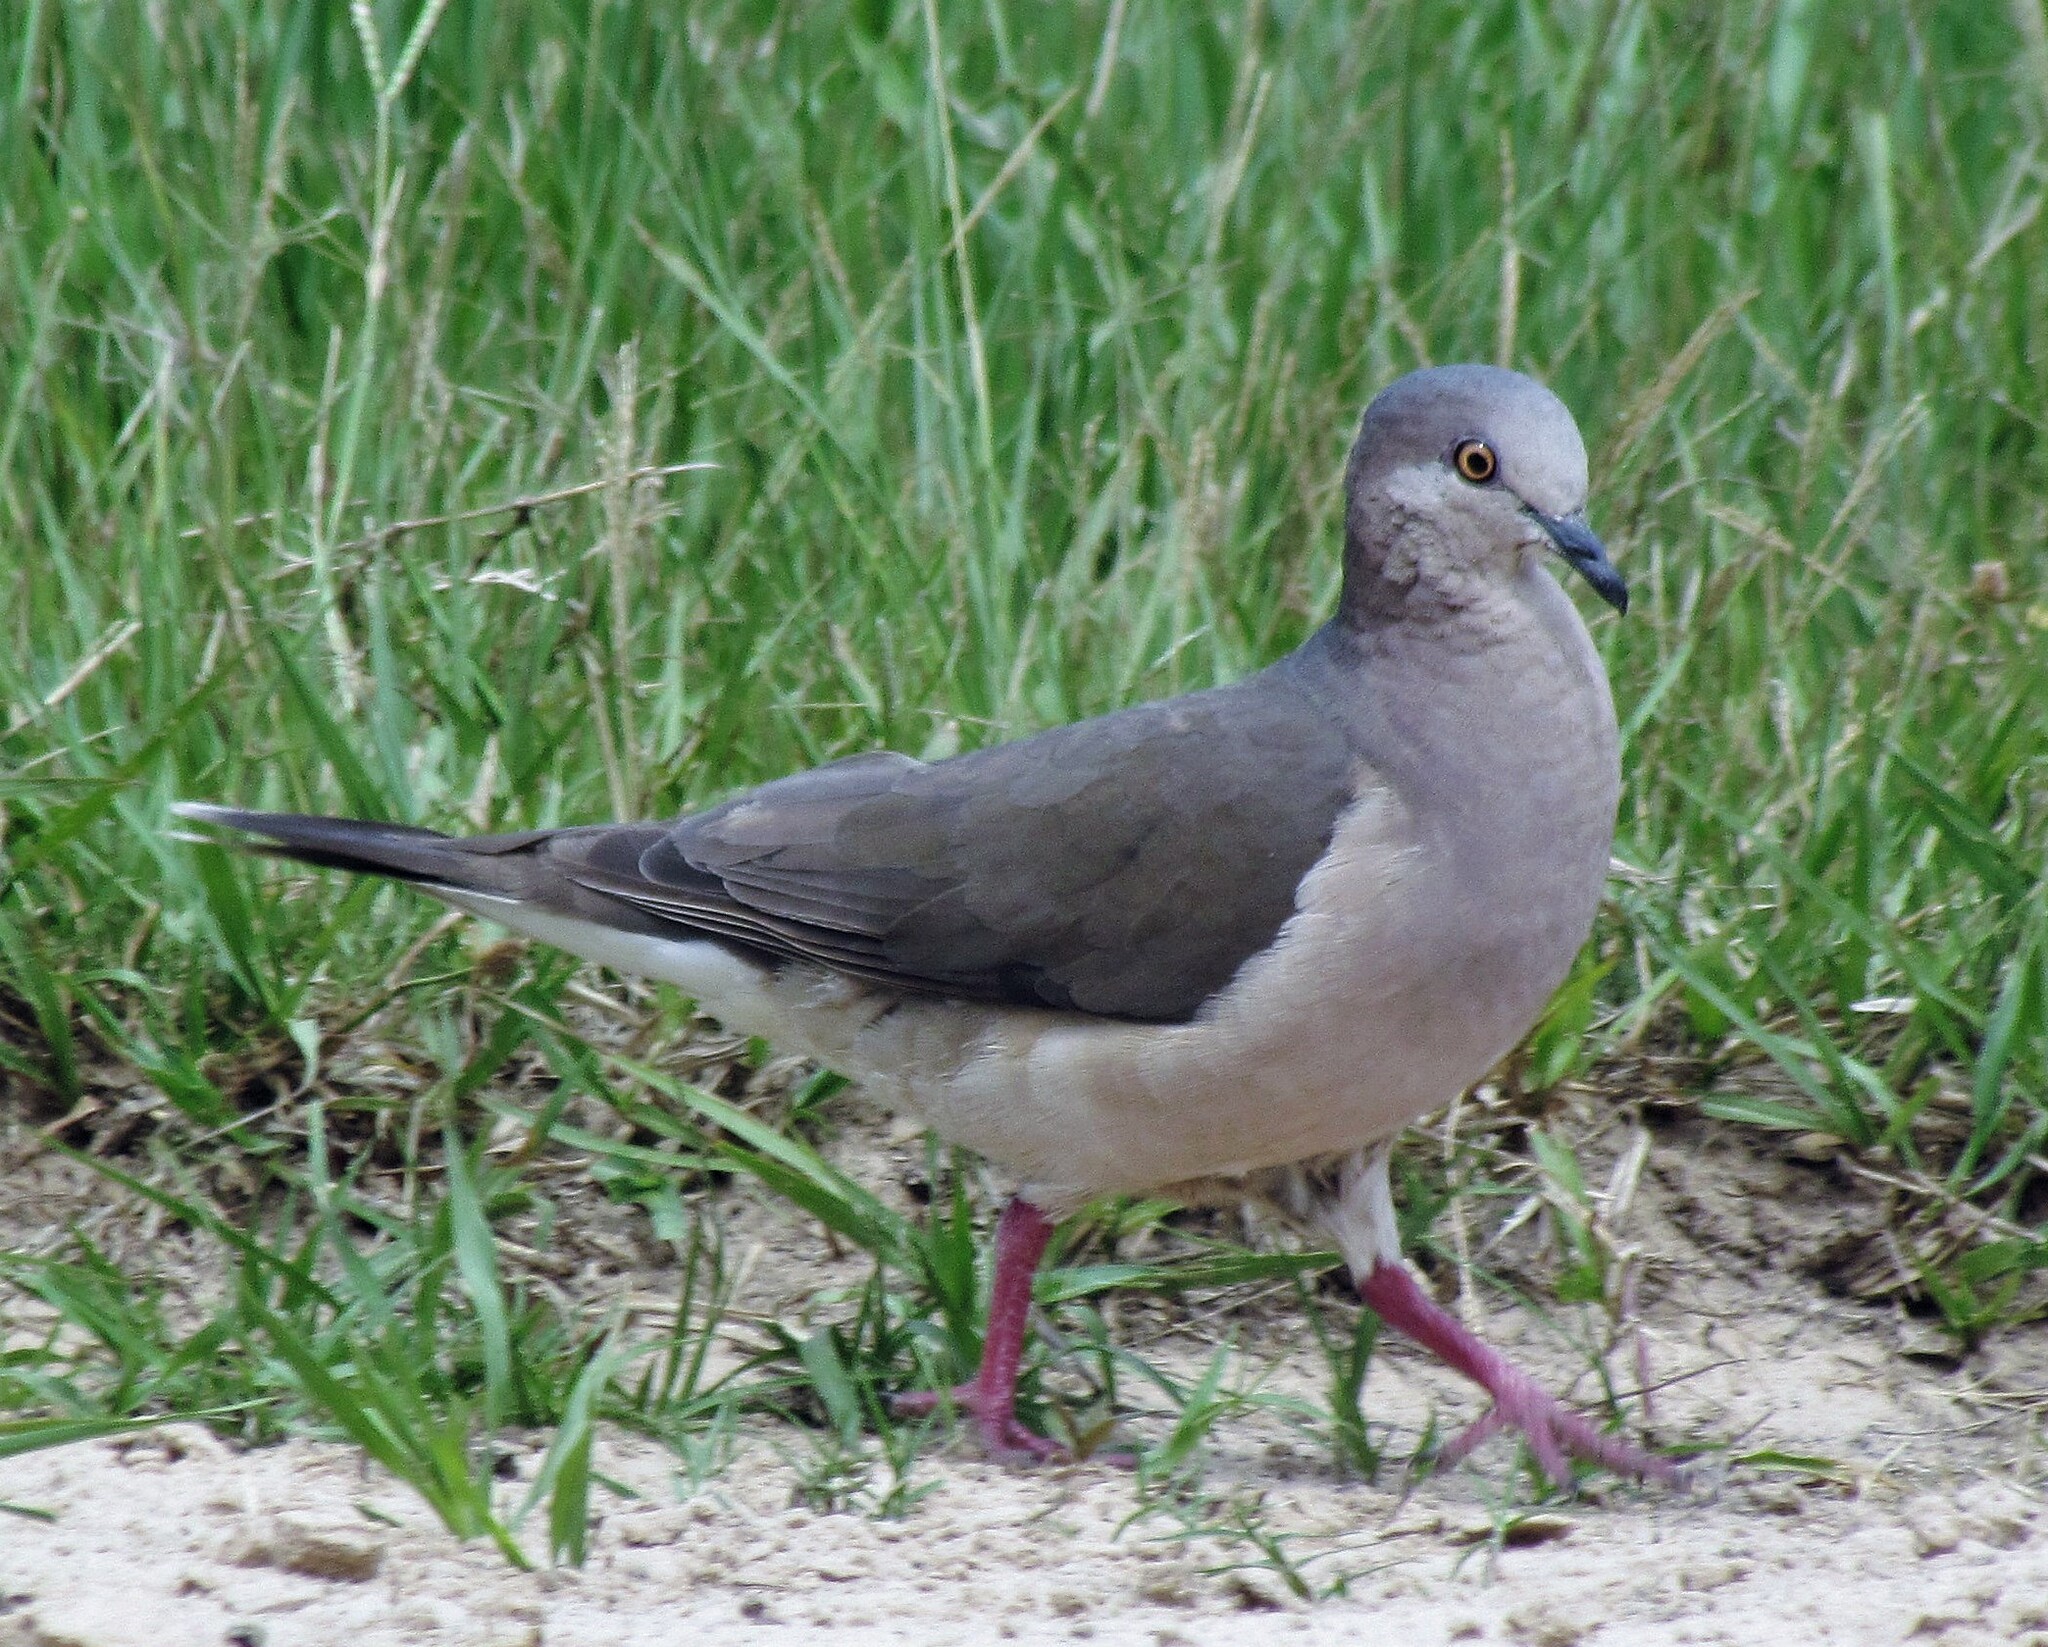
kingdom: Animalia
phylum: Chordata
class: Aves
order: Columbiformes
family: Columbidae
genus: Leptotila
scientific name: Leptotila verreauxi
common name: White-tipped dove
